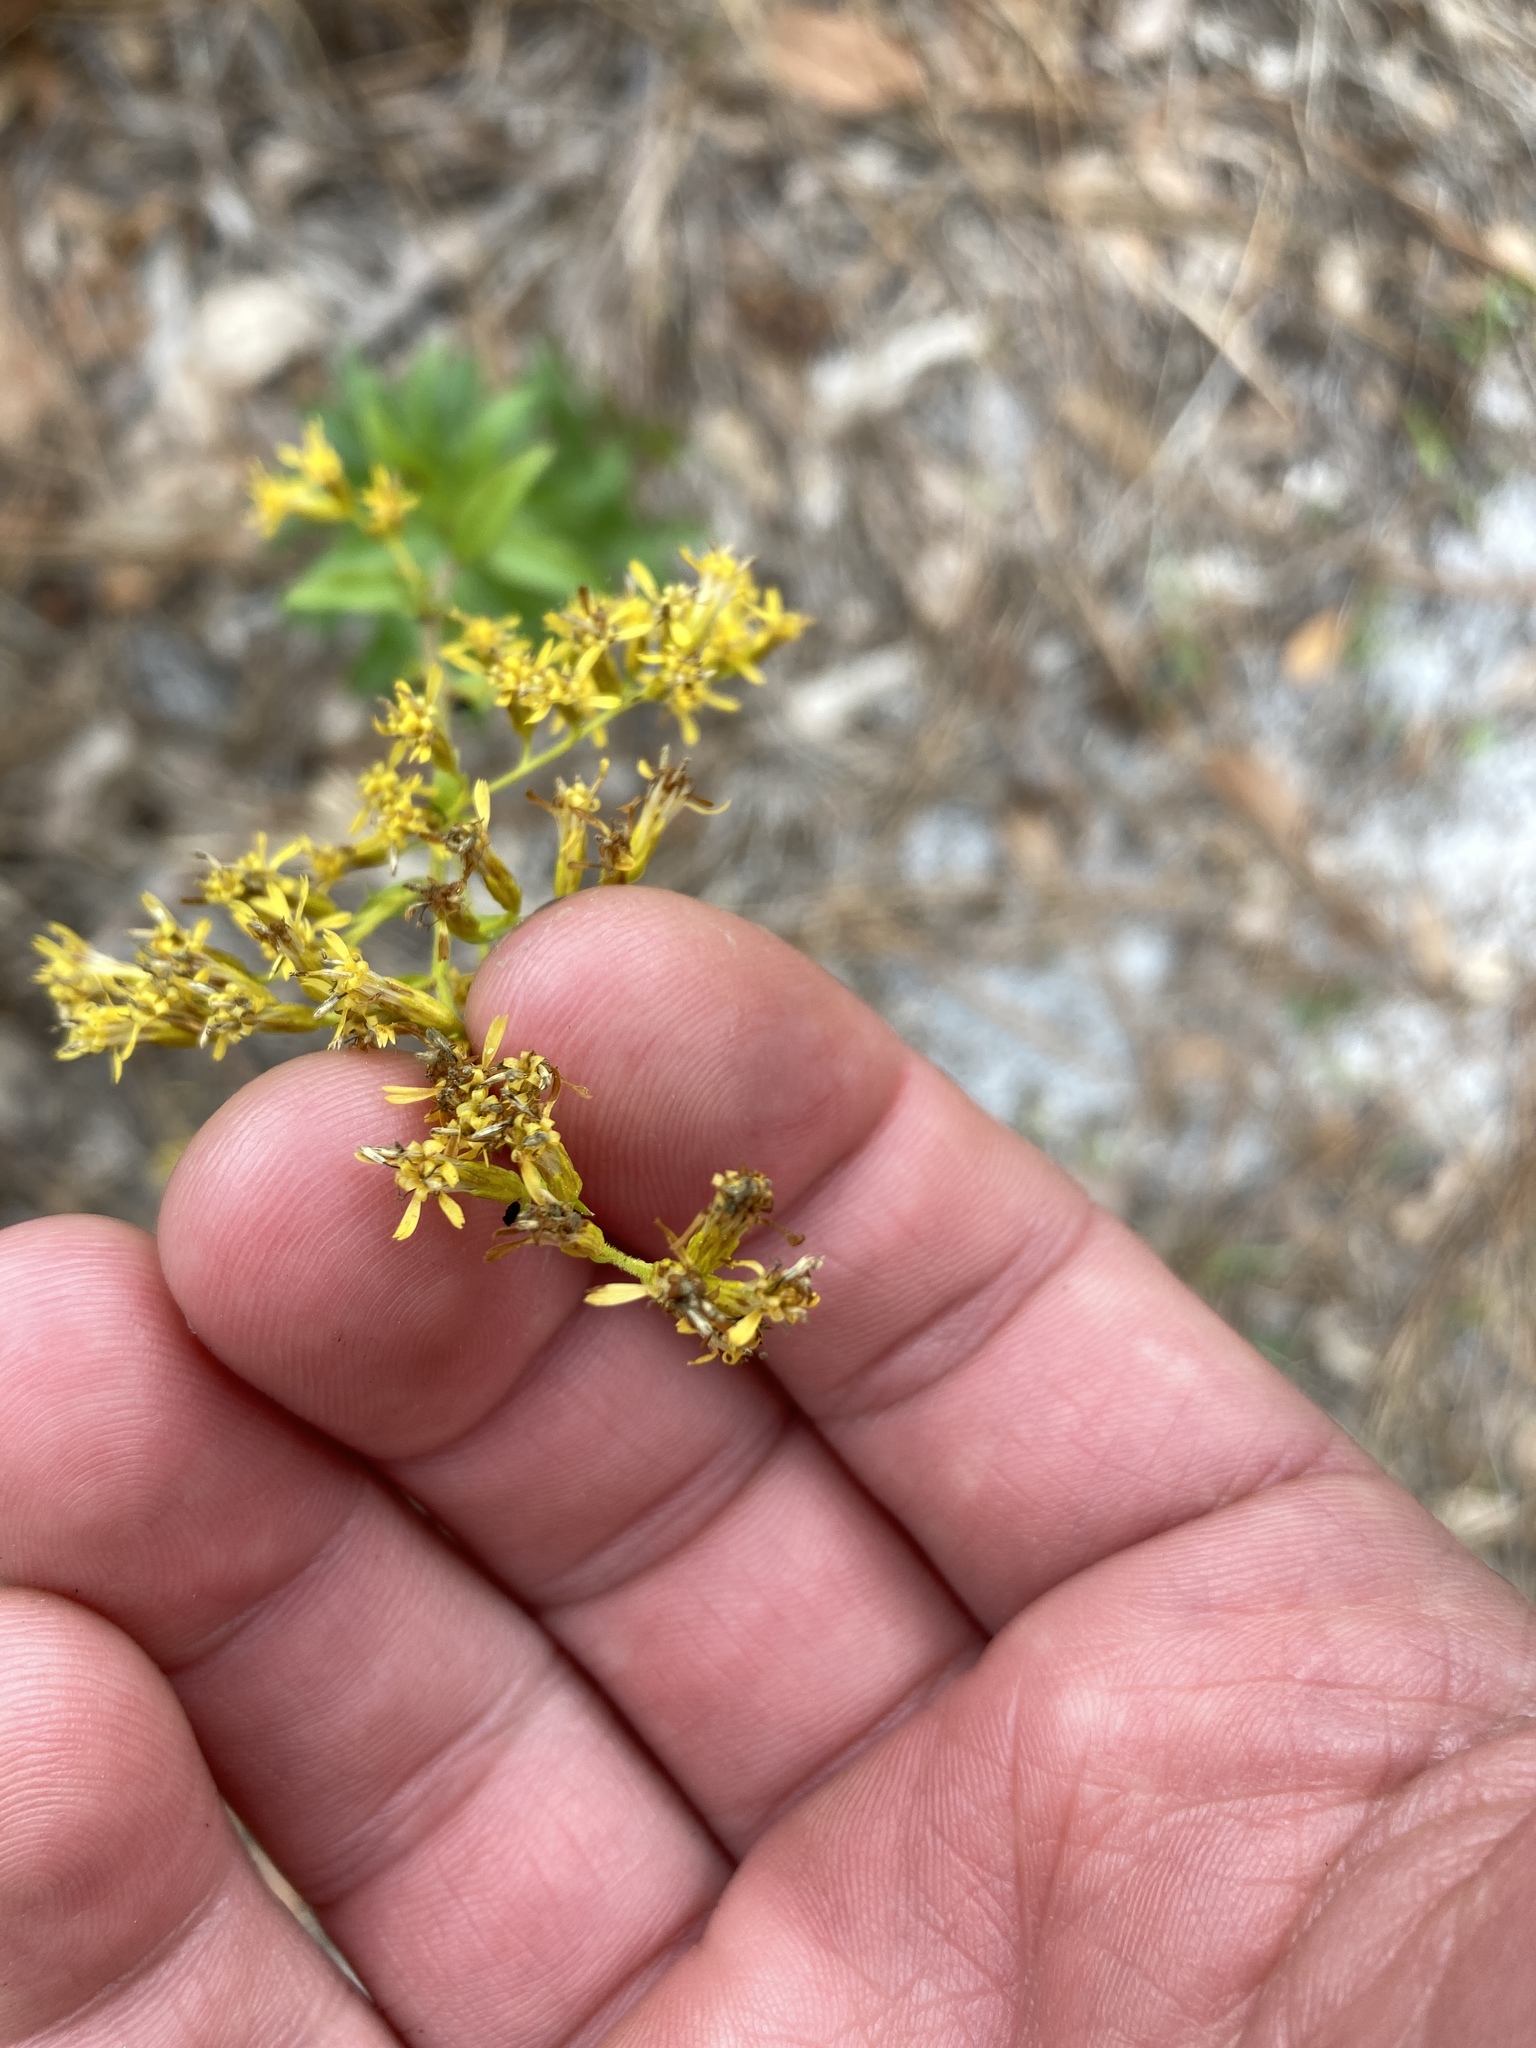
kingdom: Plantae
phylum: Tracheophyta
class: Magnoliopsida
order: Asterales
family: Asteraceae
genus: Solidago
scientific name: Solidago chapmanii
